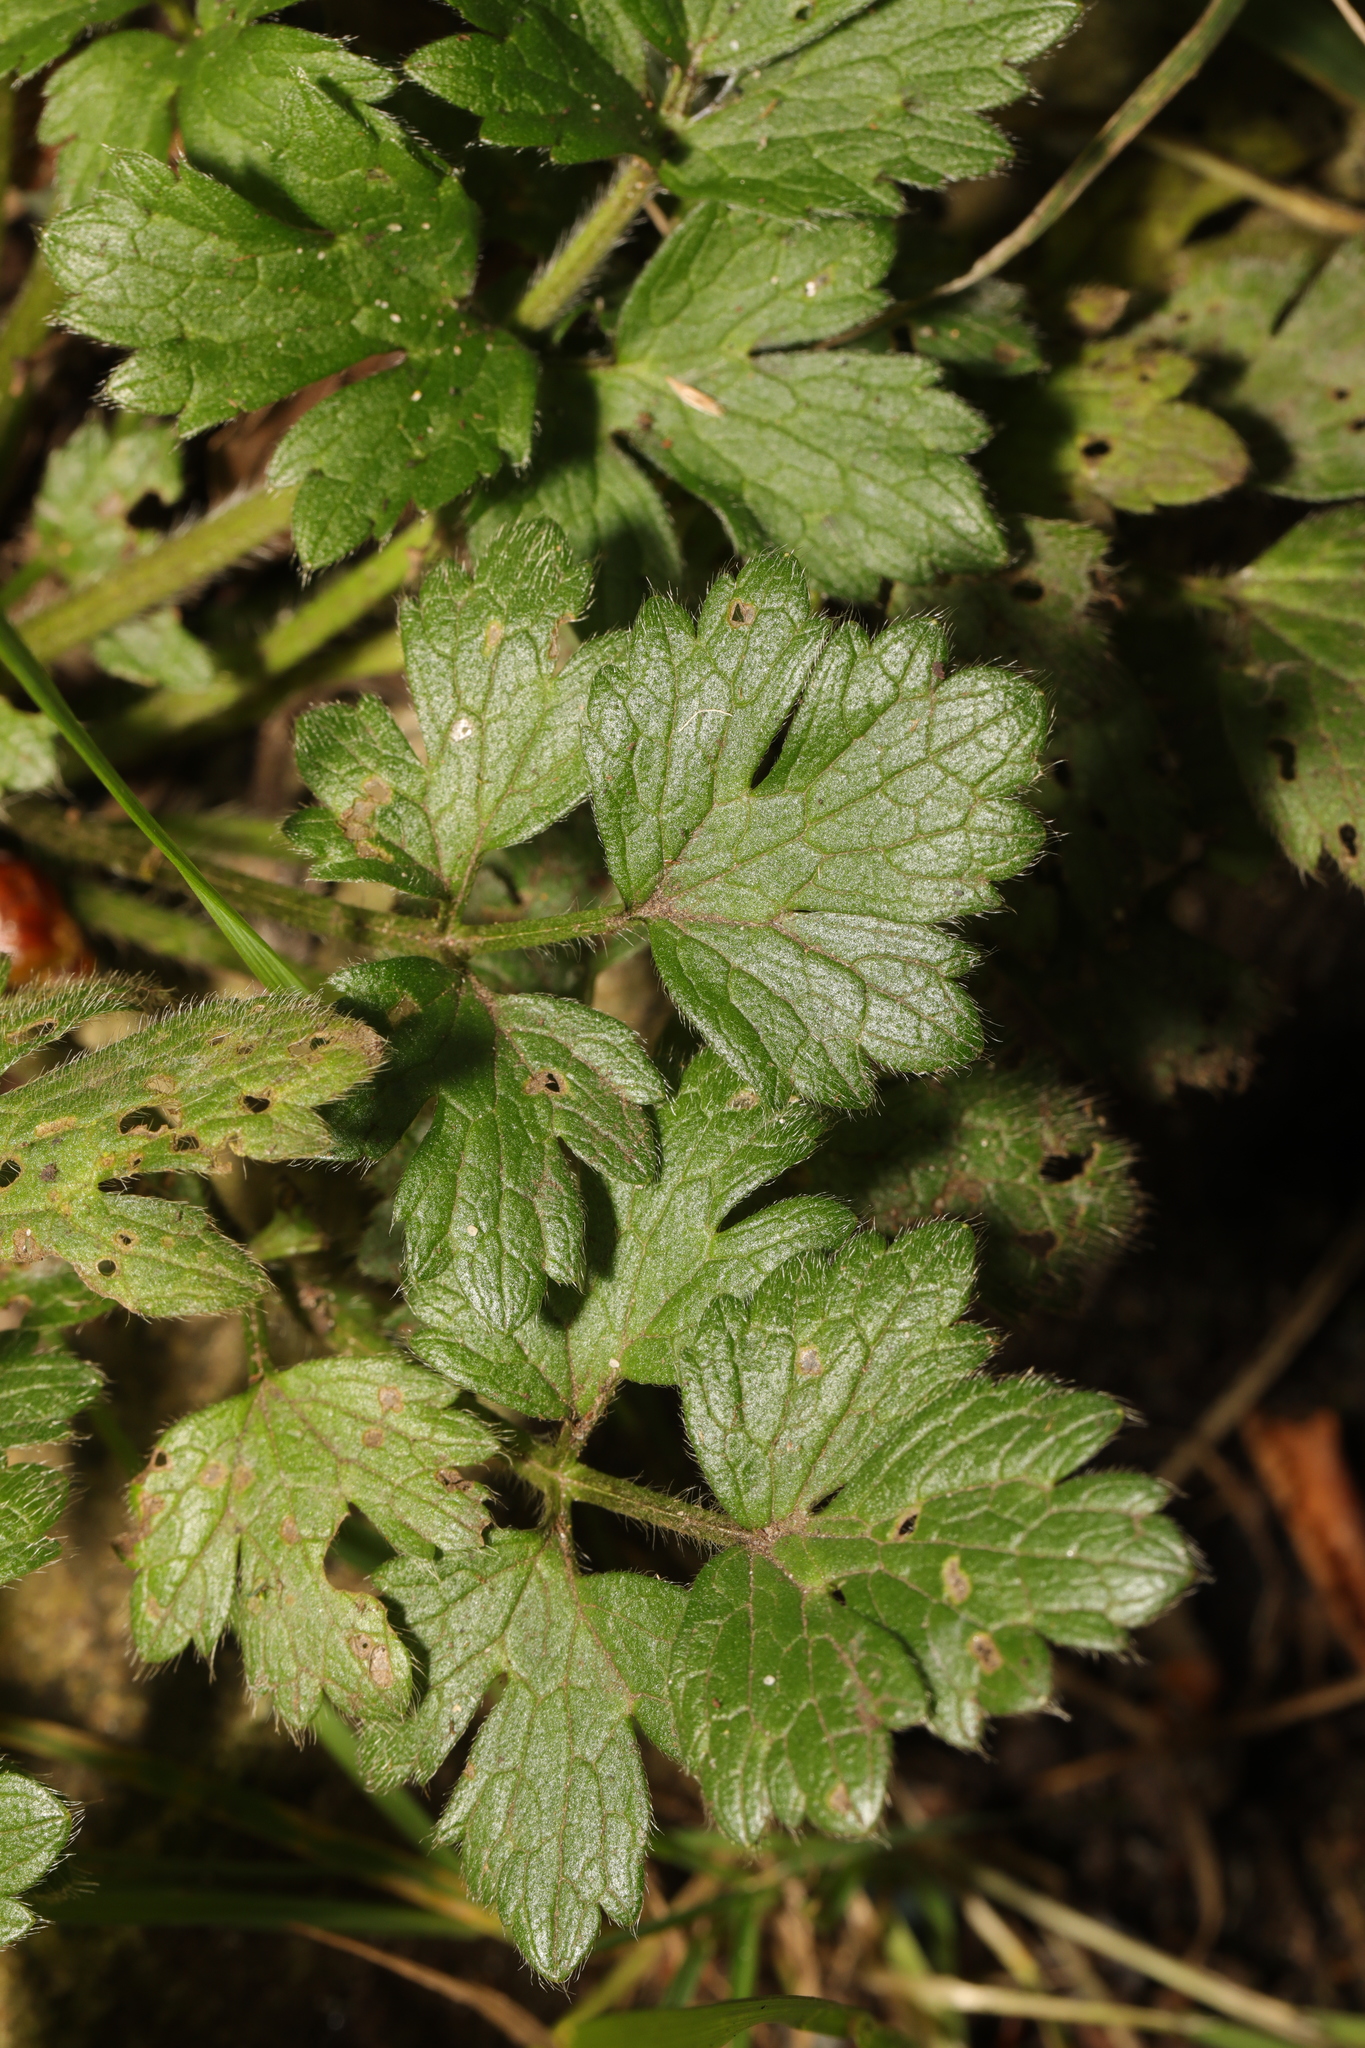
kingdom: Plantae
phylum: Tracheophyta
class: Magnoliopsida
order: Ranunculales
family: Ranunculaceae
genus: Ranunculus
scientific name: Ranunculus repens
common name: Creeping buttercup
